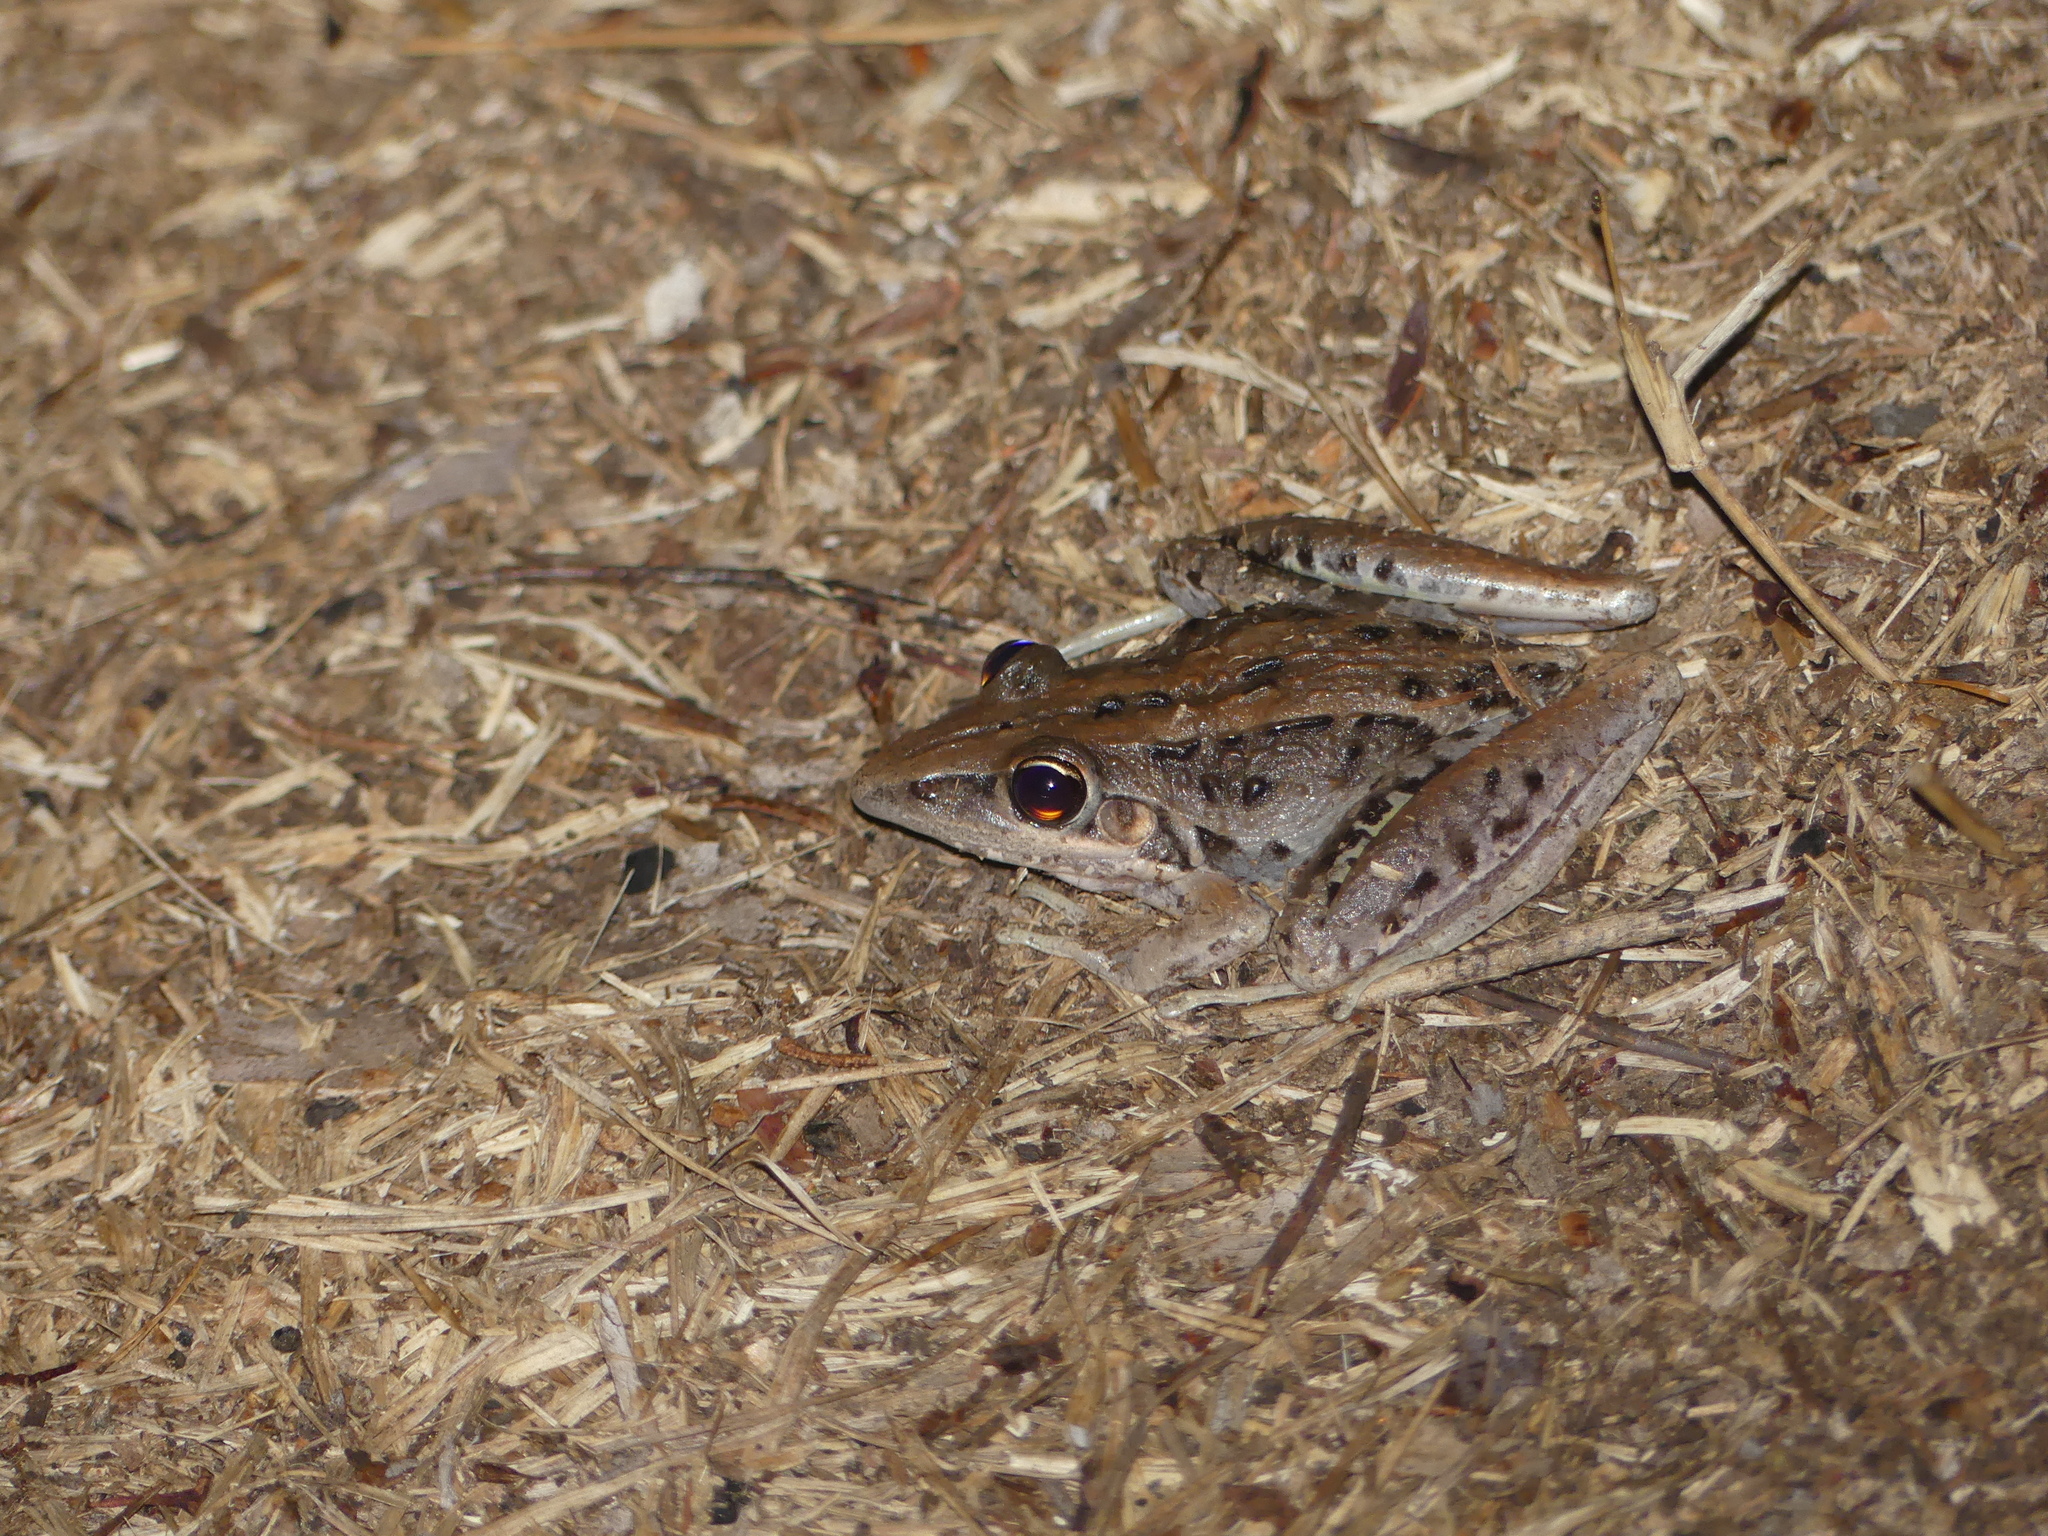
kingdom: Animalia
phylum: Chordata
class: Amphibia
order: Anura
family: Pelodryadidae
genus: Litoria
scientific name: Litoria nasuta
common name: Rocket frog
